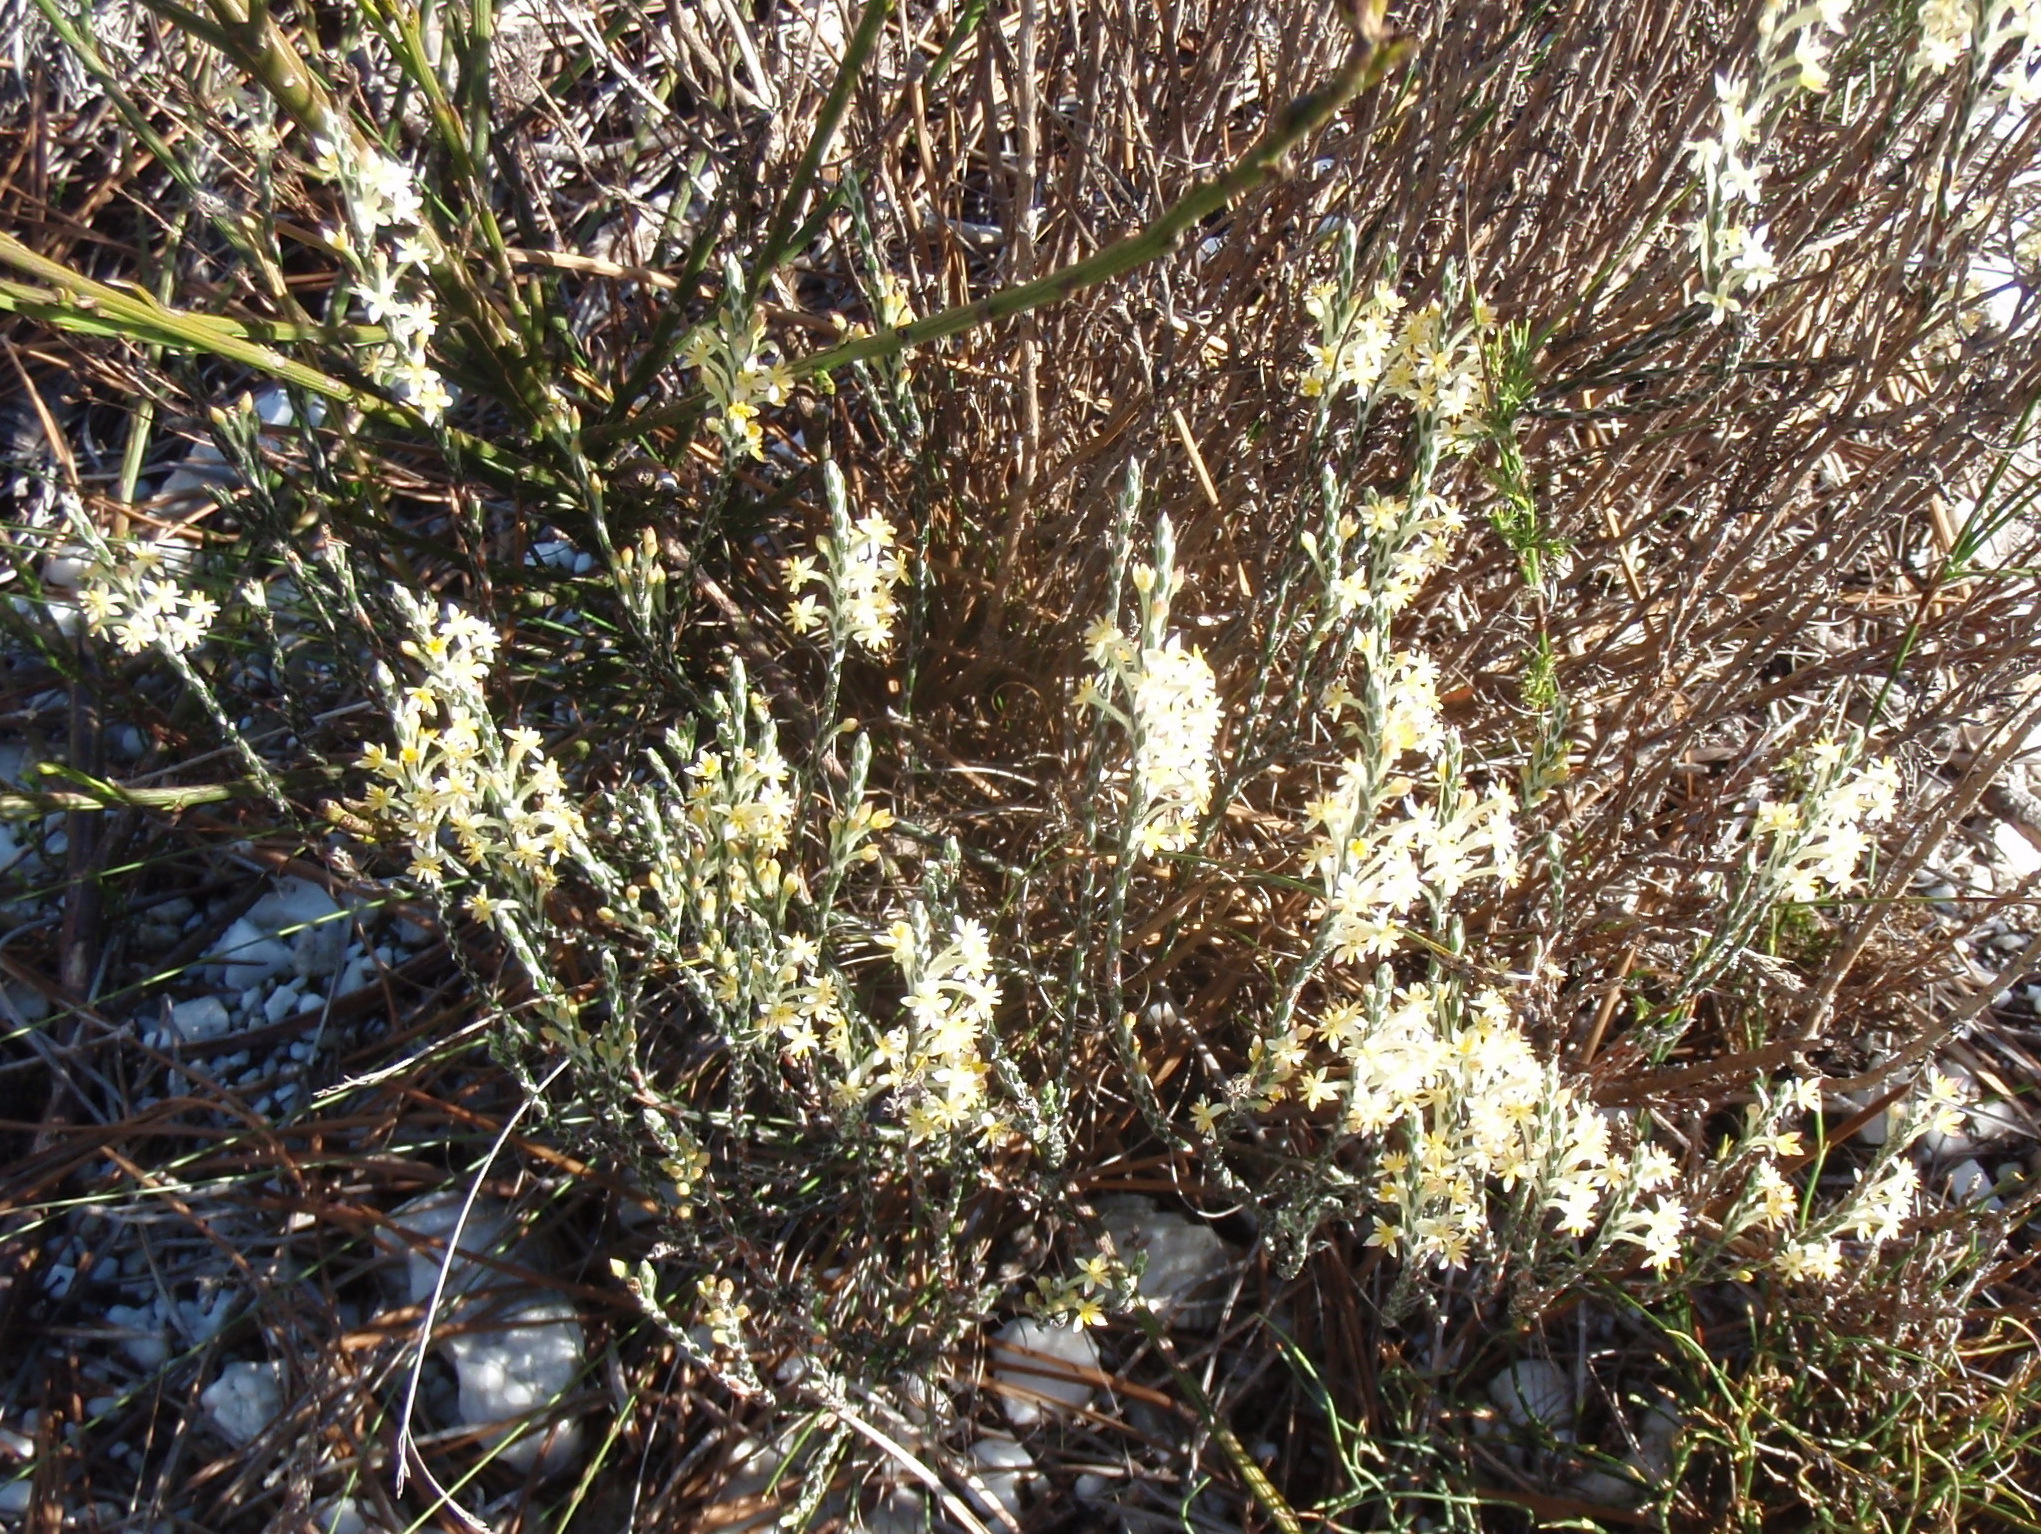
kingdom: Plantae
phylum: Tracheophyta
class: Magnoliopsida
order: Malvales
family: Thymelaeaceae
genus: Struthiola
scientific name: Struthiola ciliata
